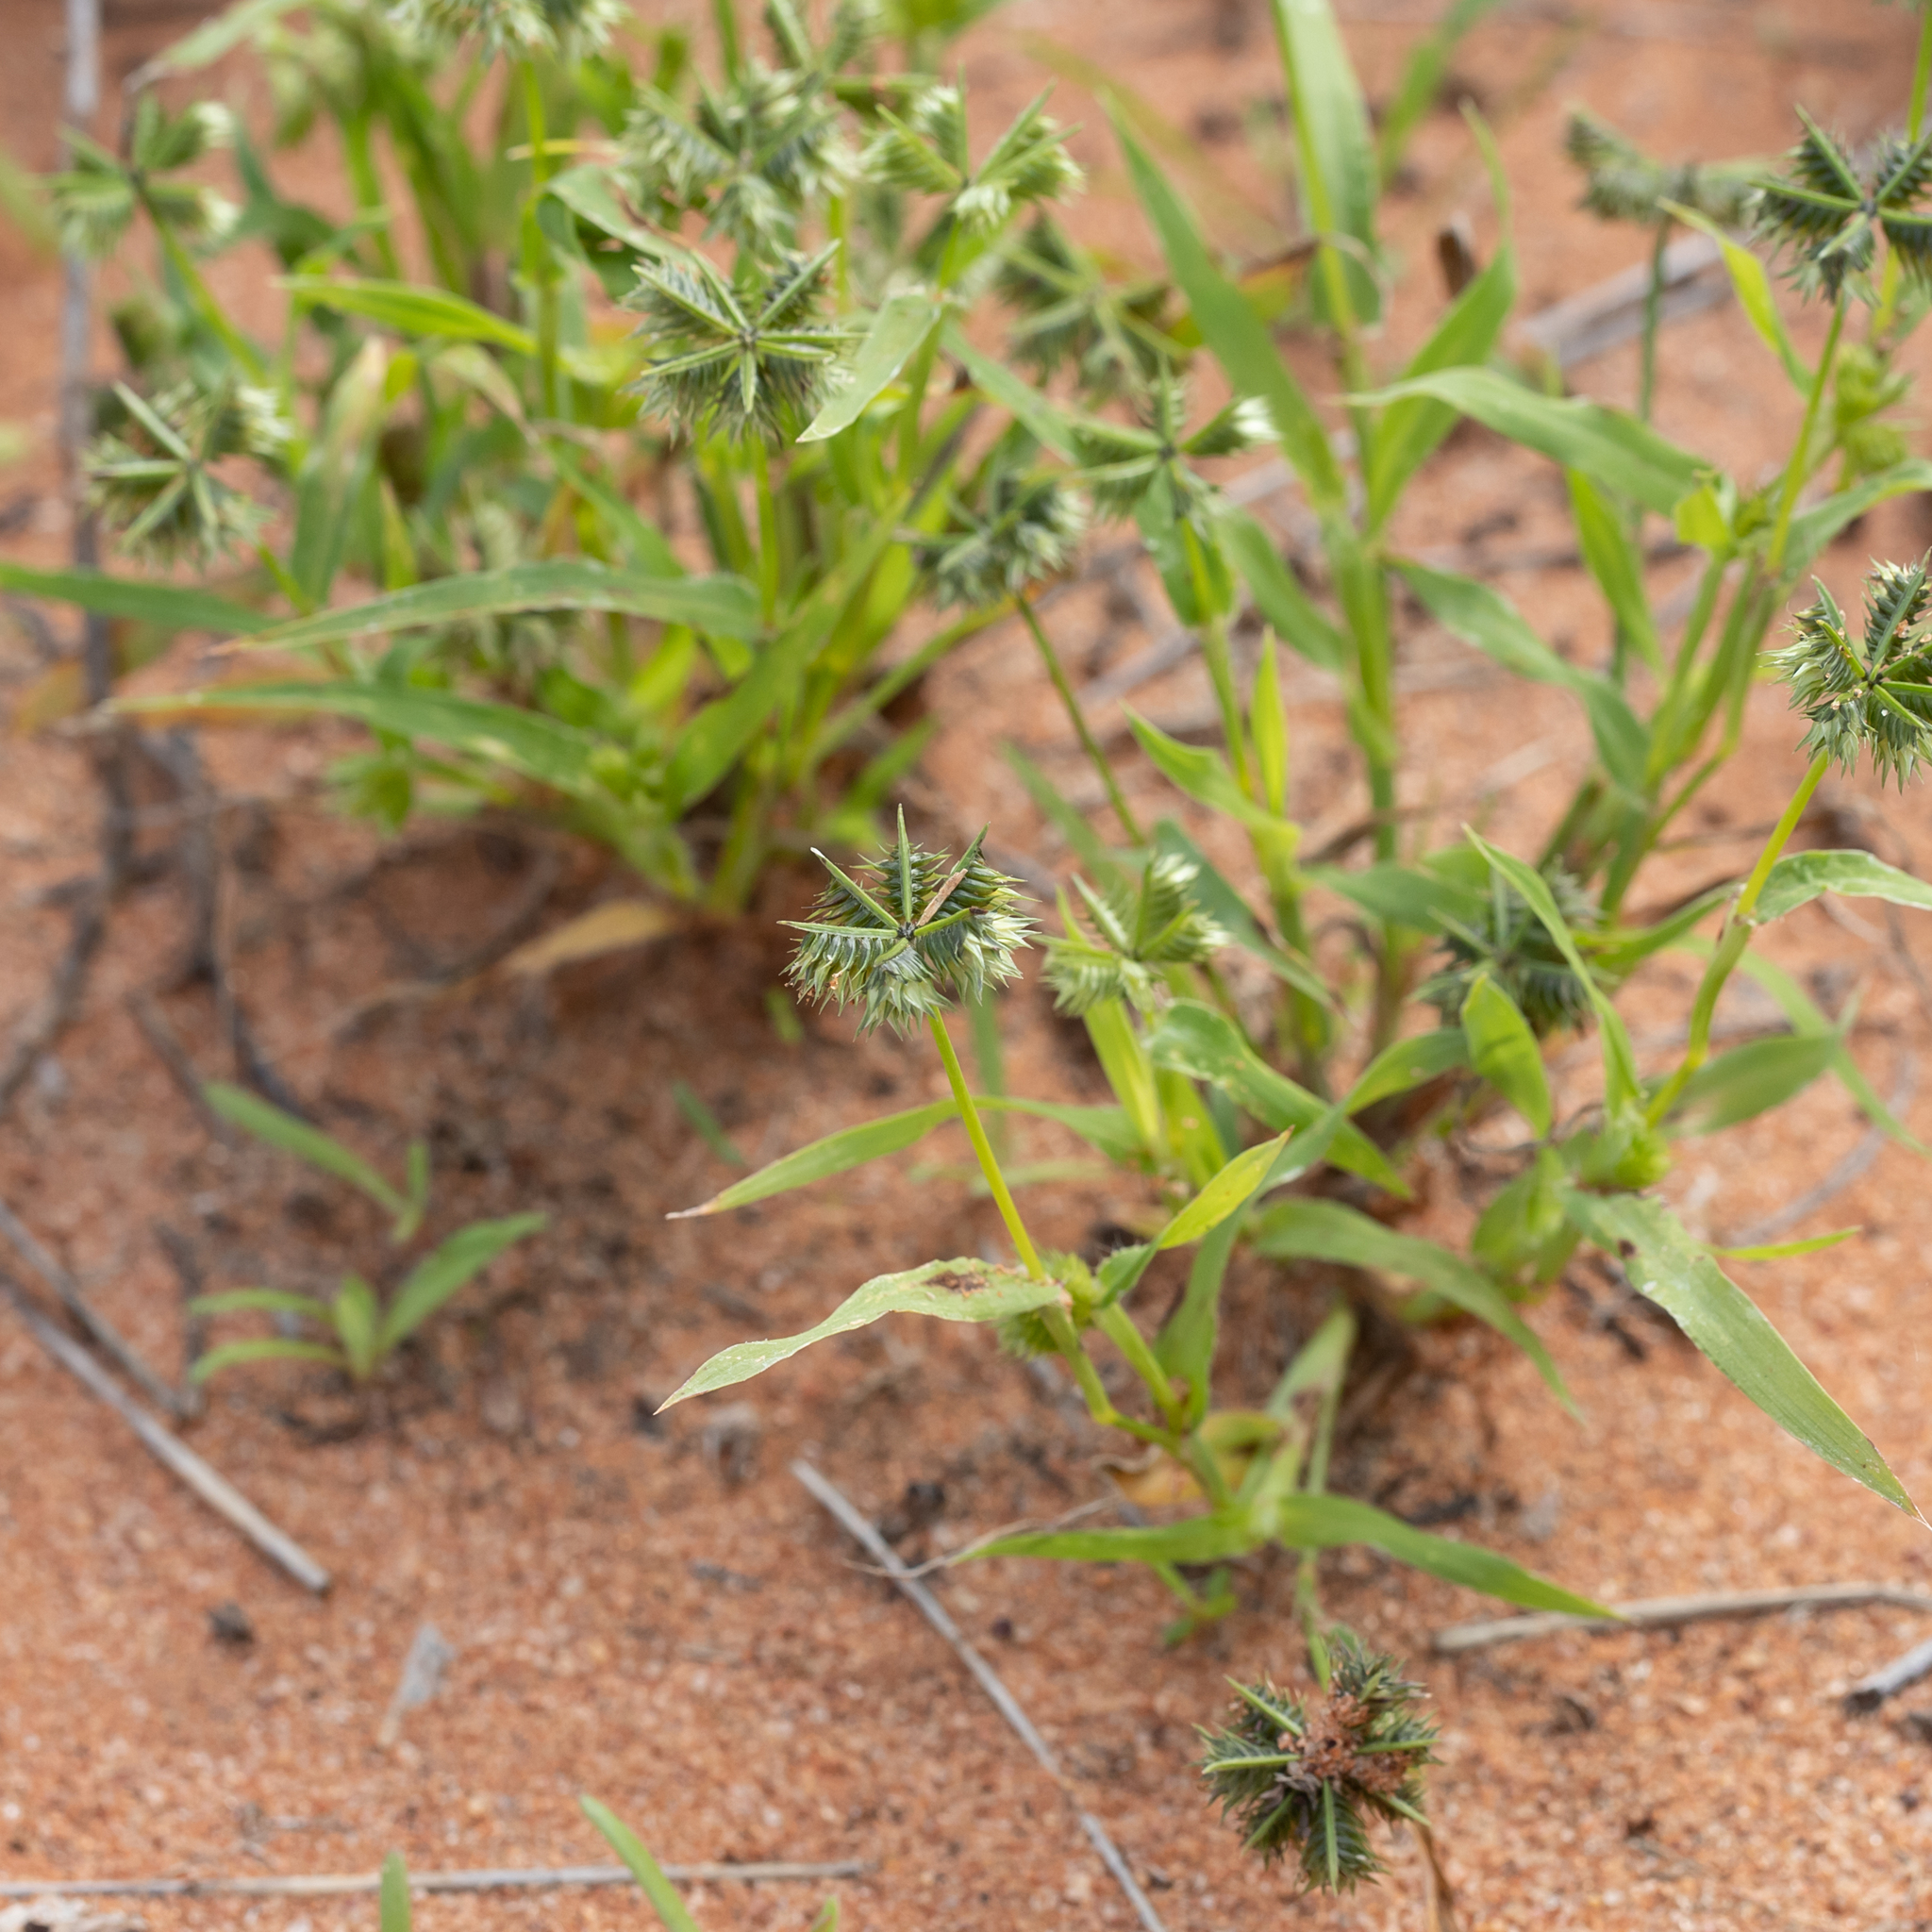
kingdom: Plantae
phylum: Tracheophyta
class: Liliopsida
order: Poales
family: Poaceae
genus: Dactyloctenium
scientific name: Dactyloctenium radulans
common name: Button-grass
